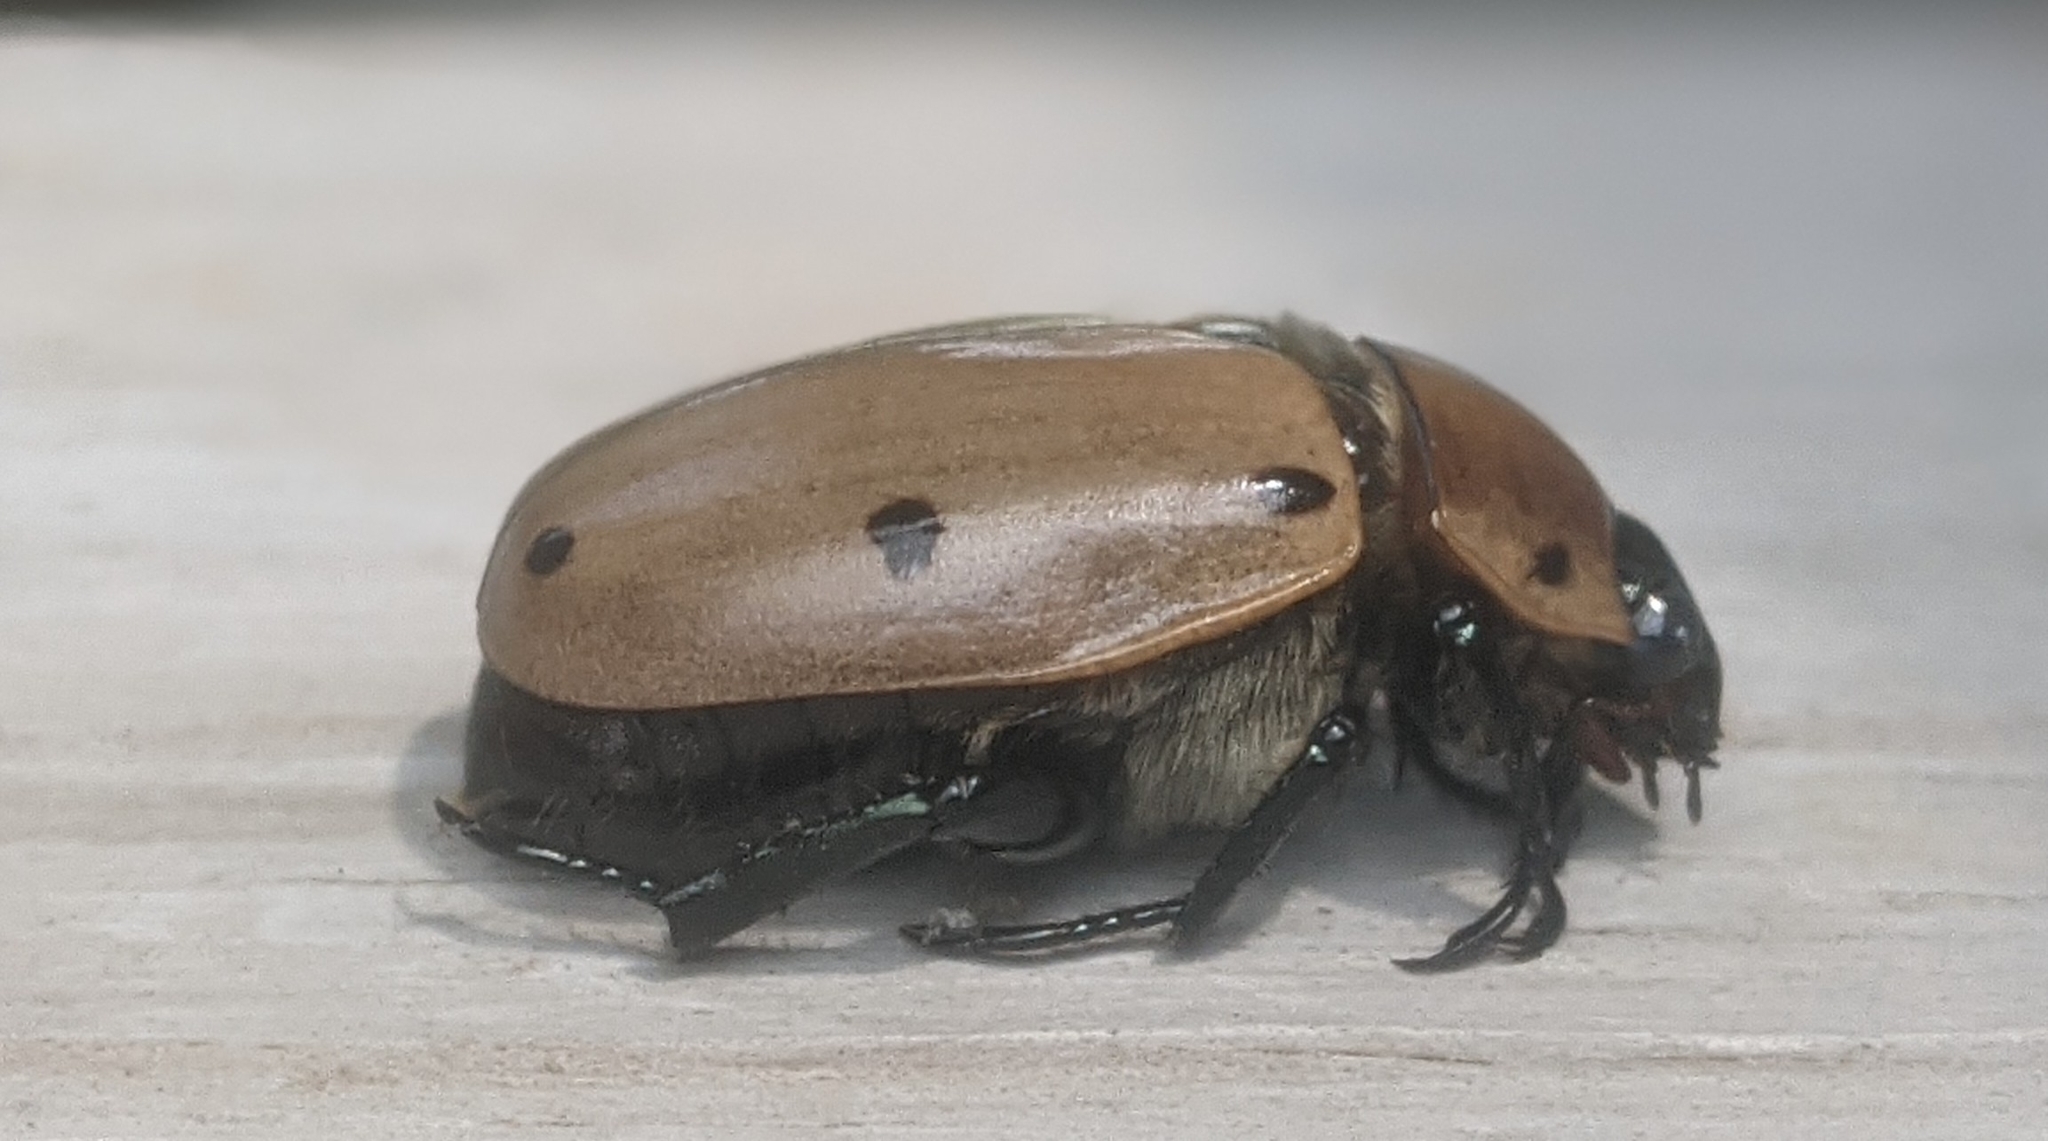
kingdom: Animalia
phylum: Arthropoda
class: Insecta
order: Coleoptera
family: Scarabaeidae
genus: Pelidnota
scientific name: Pelidnota punctata
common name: Grapevine beetle
